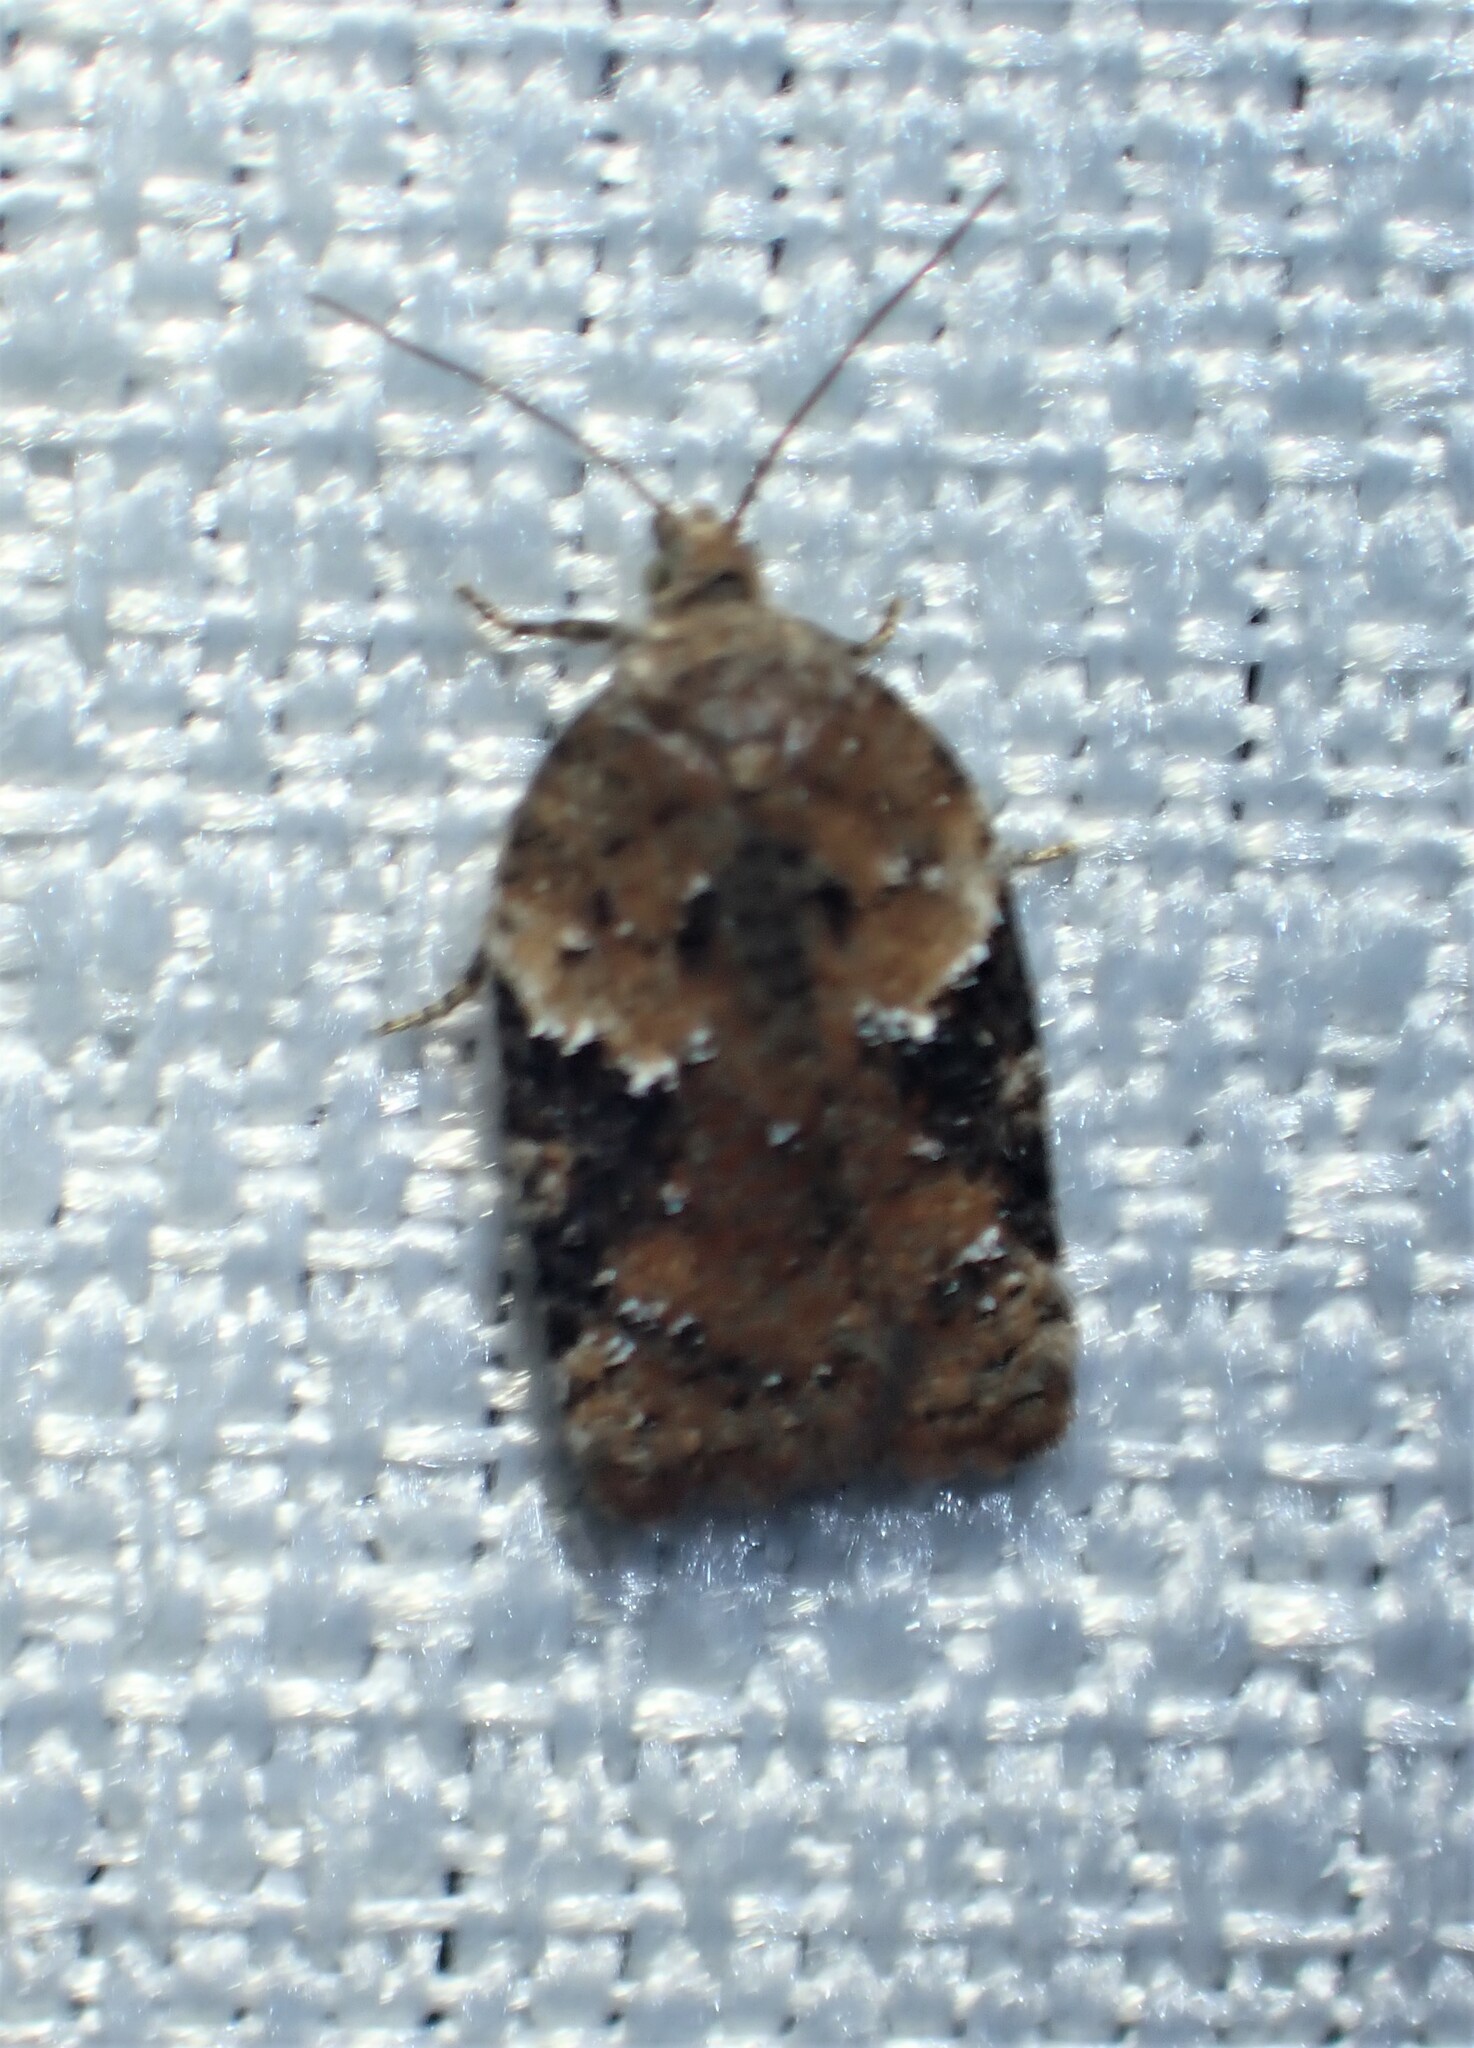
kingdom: Animalia
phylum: Arthropoda
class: Insecta
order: Lepidoptera
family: Tortricidae
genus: Acleris
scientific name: Acleris braunana
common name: Alder leafroller
